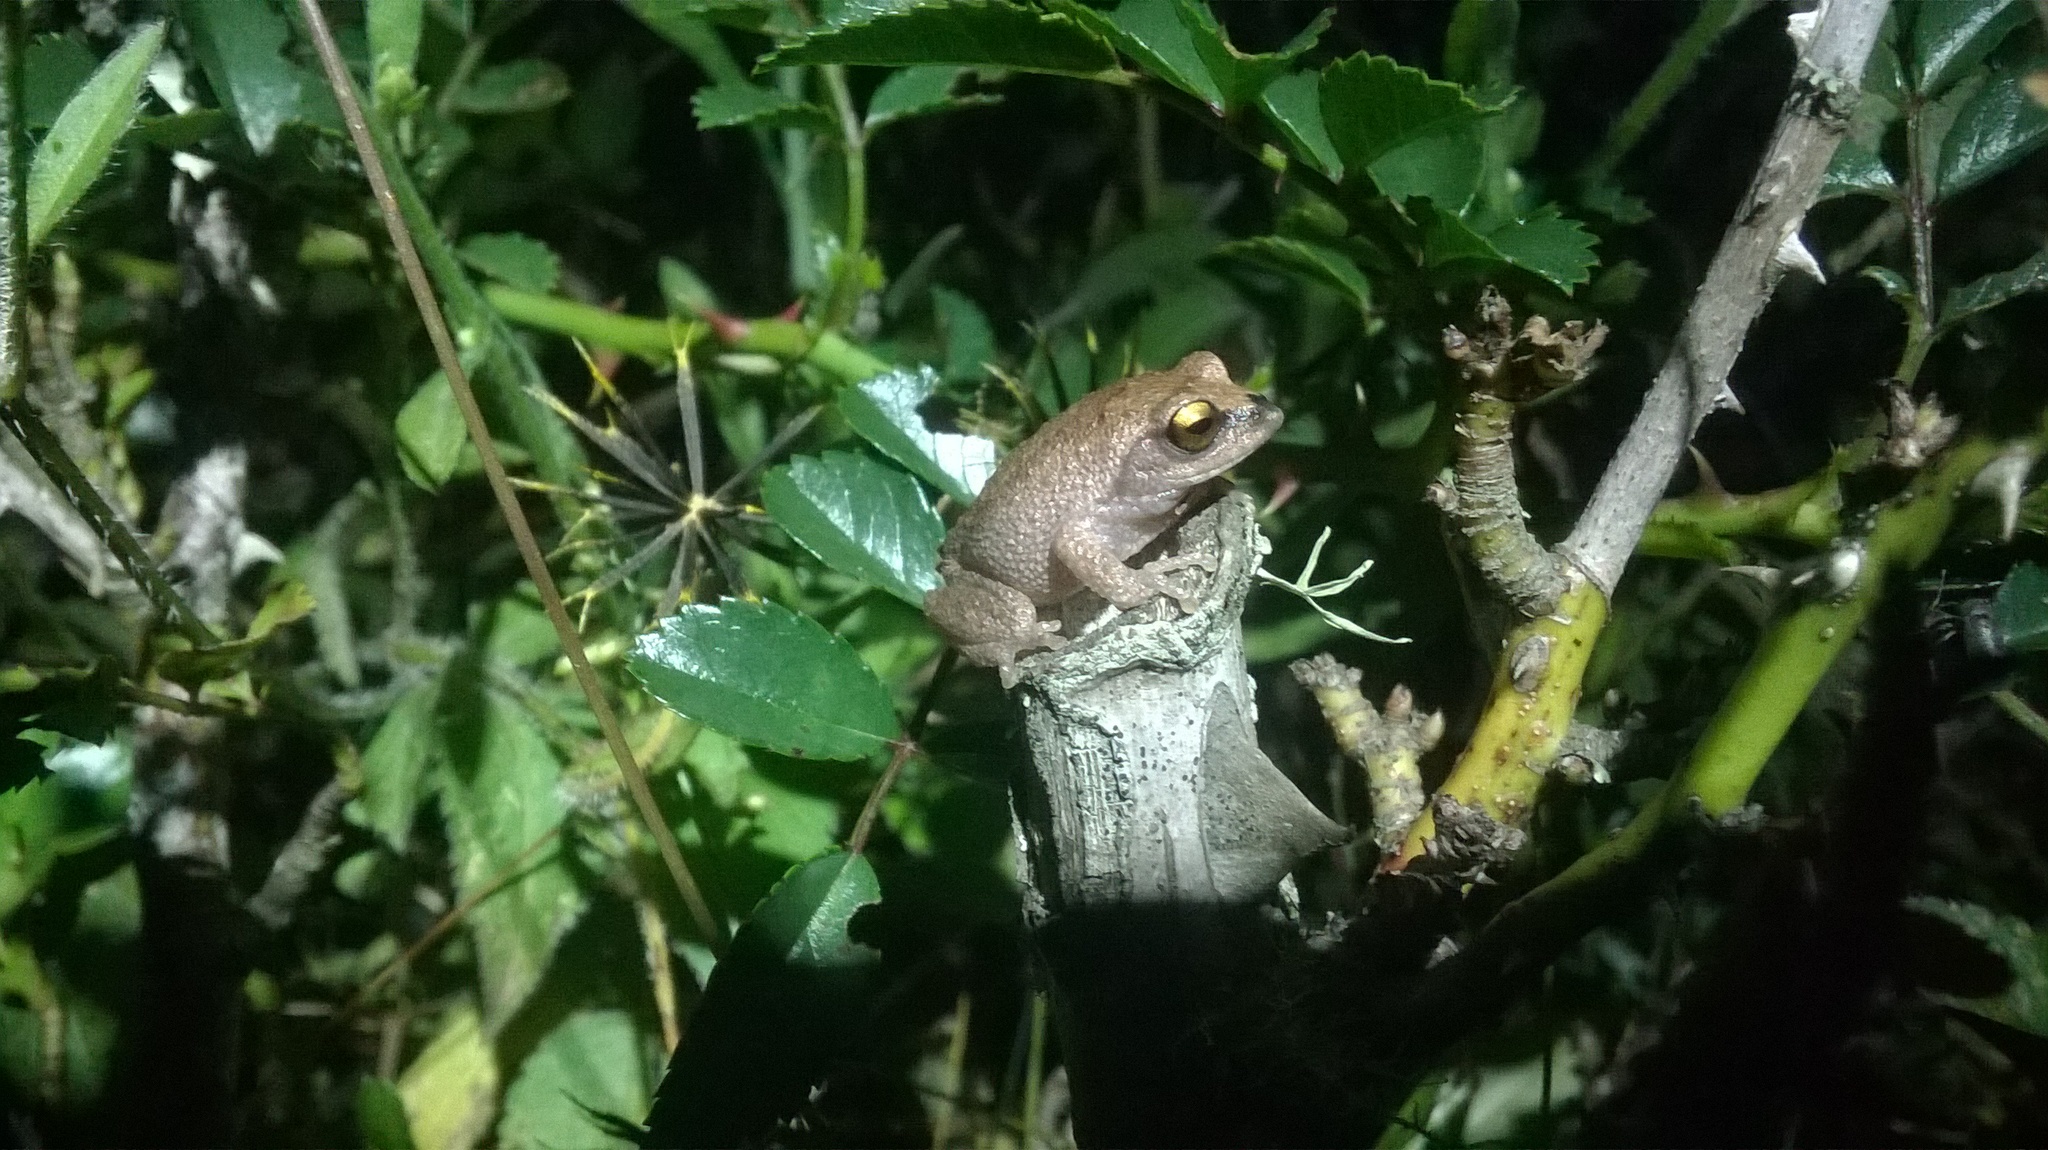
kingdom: Animalia
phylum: Chordata
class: Amphibia
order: Anura
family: Rhacophoridae
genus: Raorchestes
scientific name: Raorchestes dubois
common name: Koadaikanal bush frog
